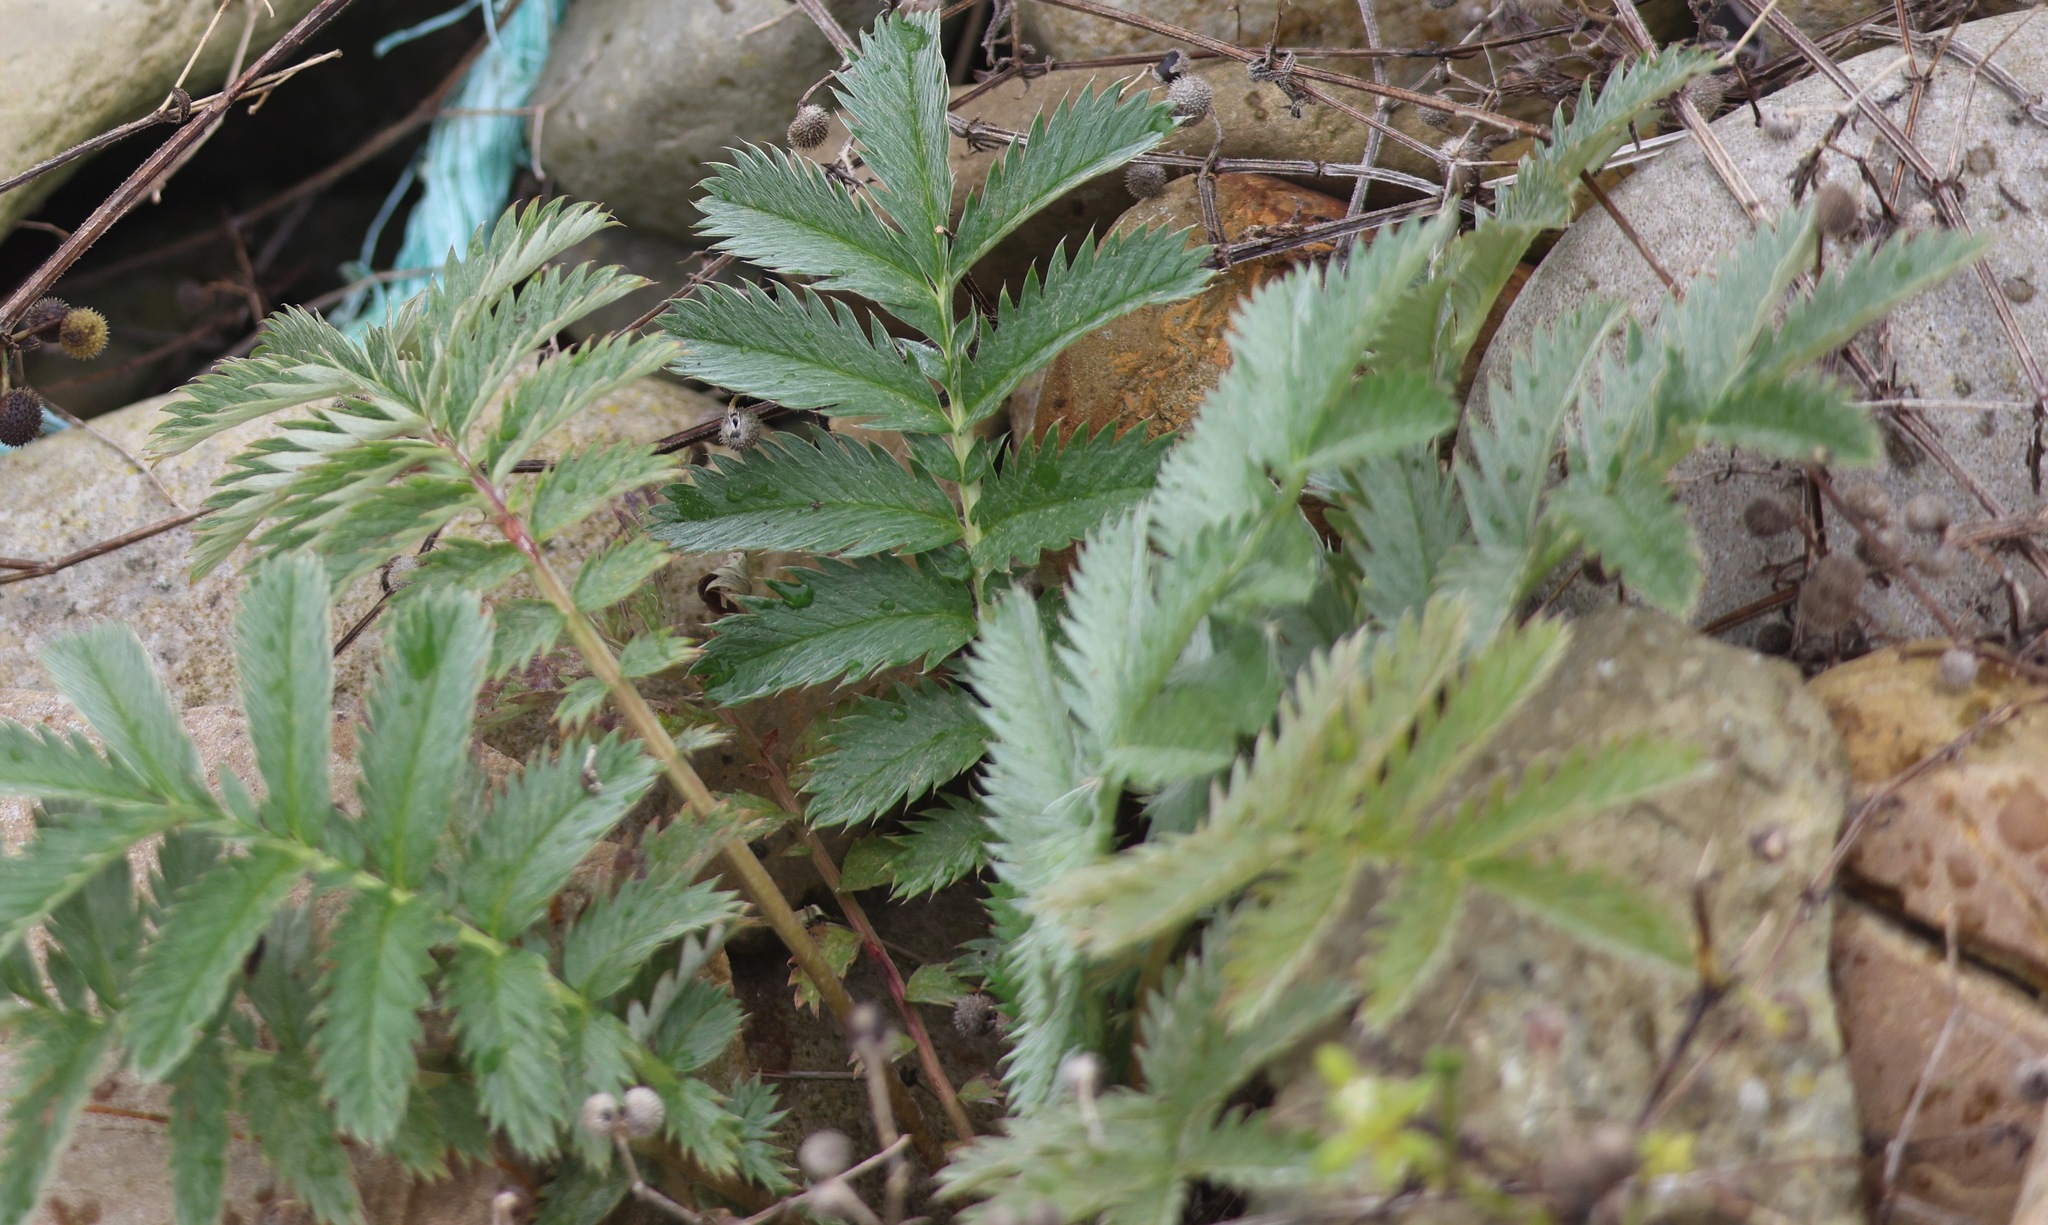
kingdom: Plantae
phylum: Tracheophyta
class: Magnoliopsida
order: Rosales
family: Rosaceae
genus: Argentina
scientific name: Argentina anserina
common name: Common silverweed
